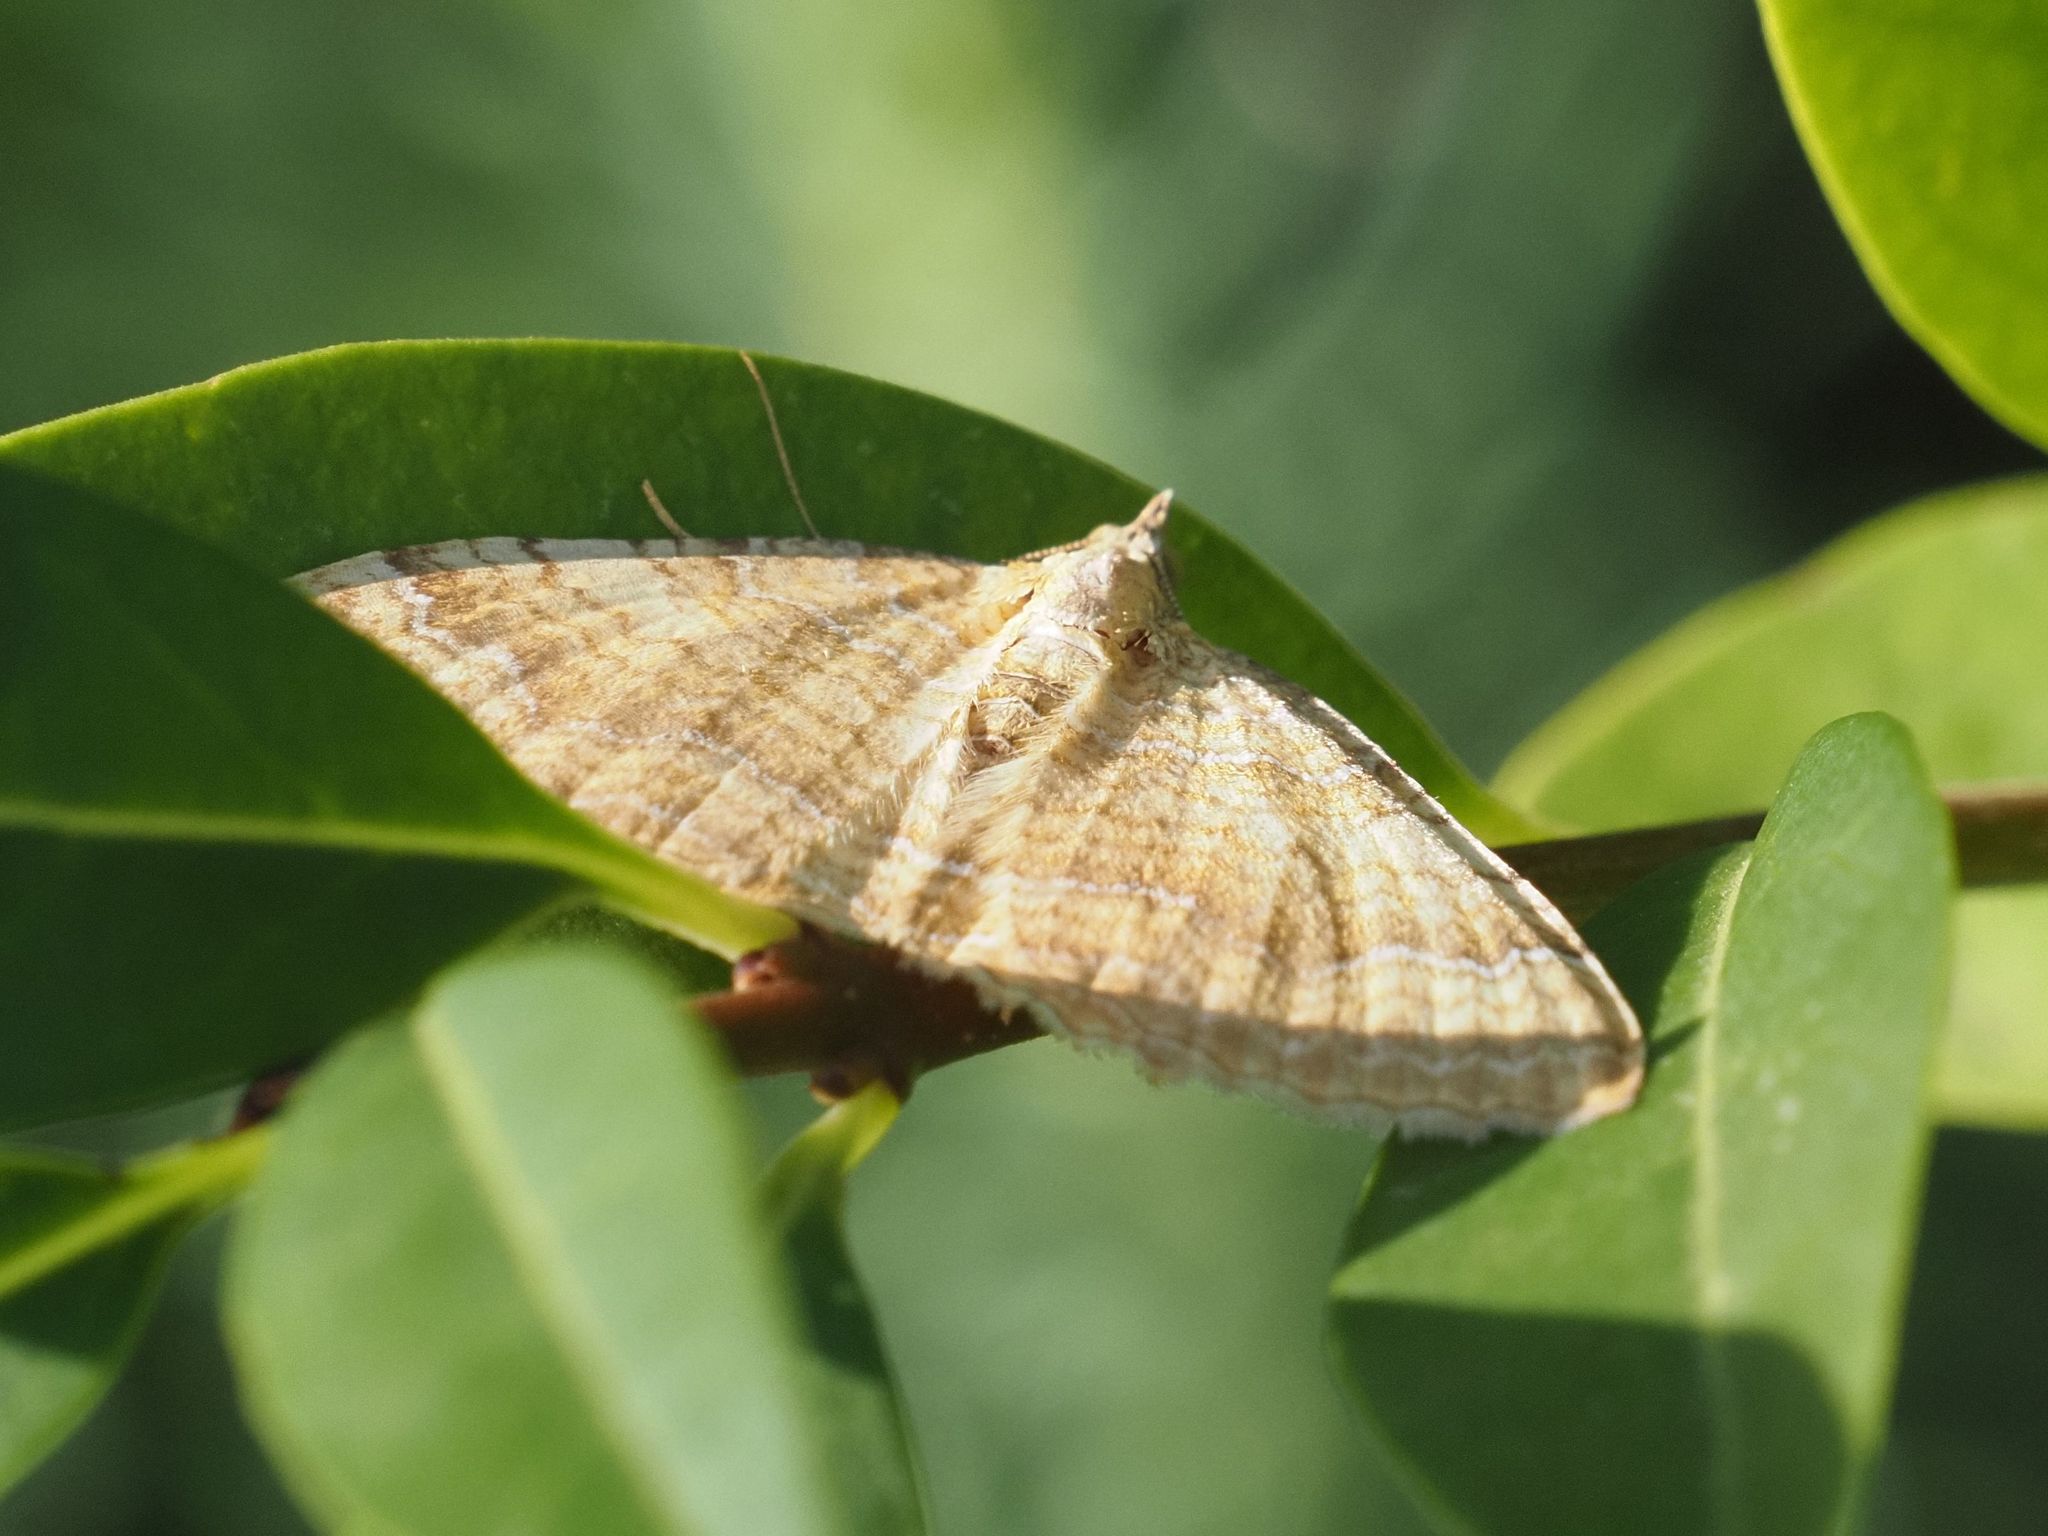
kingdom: Animalia
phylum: Arthropoda
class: Insecta
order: Lepidoptera
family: Geometridae
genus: Camptogramma
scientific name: Camptogramma bilineata
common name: Yellow shell
